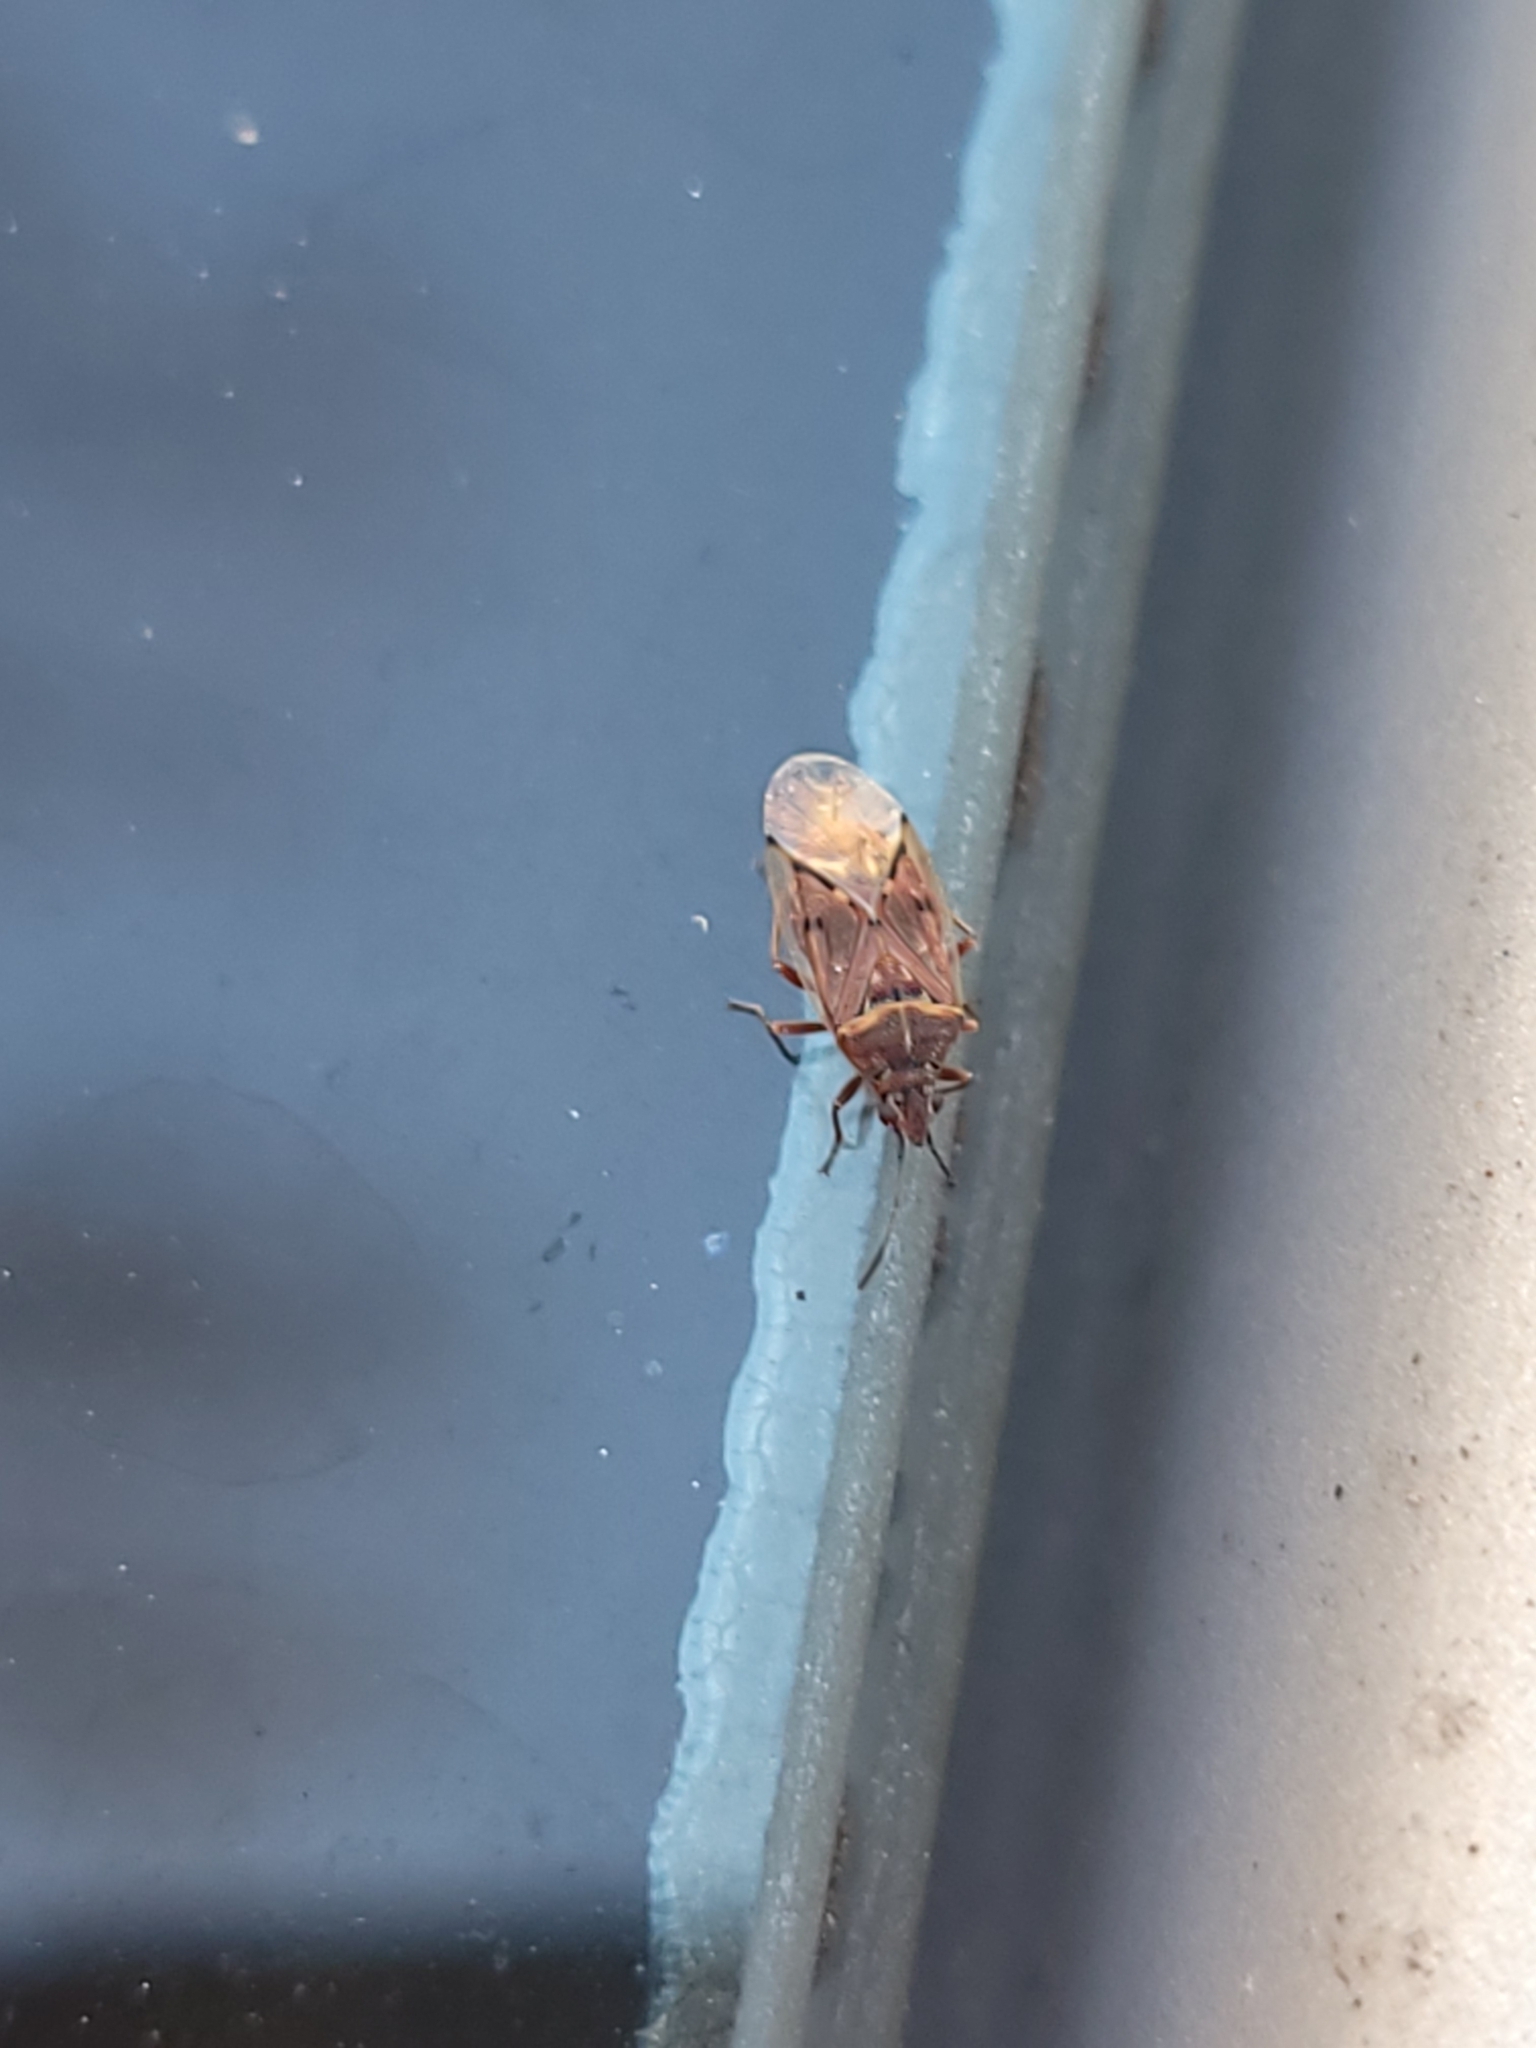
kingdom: Animalia
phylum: Arthropoda
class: Insecta
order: Hemiptera
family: Lygaeidae
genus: Kleidocerys
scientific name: Kleidocerys resedae
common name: Birch catkin bug
